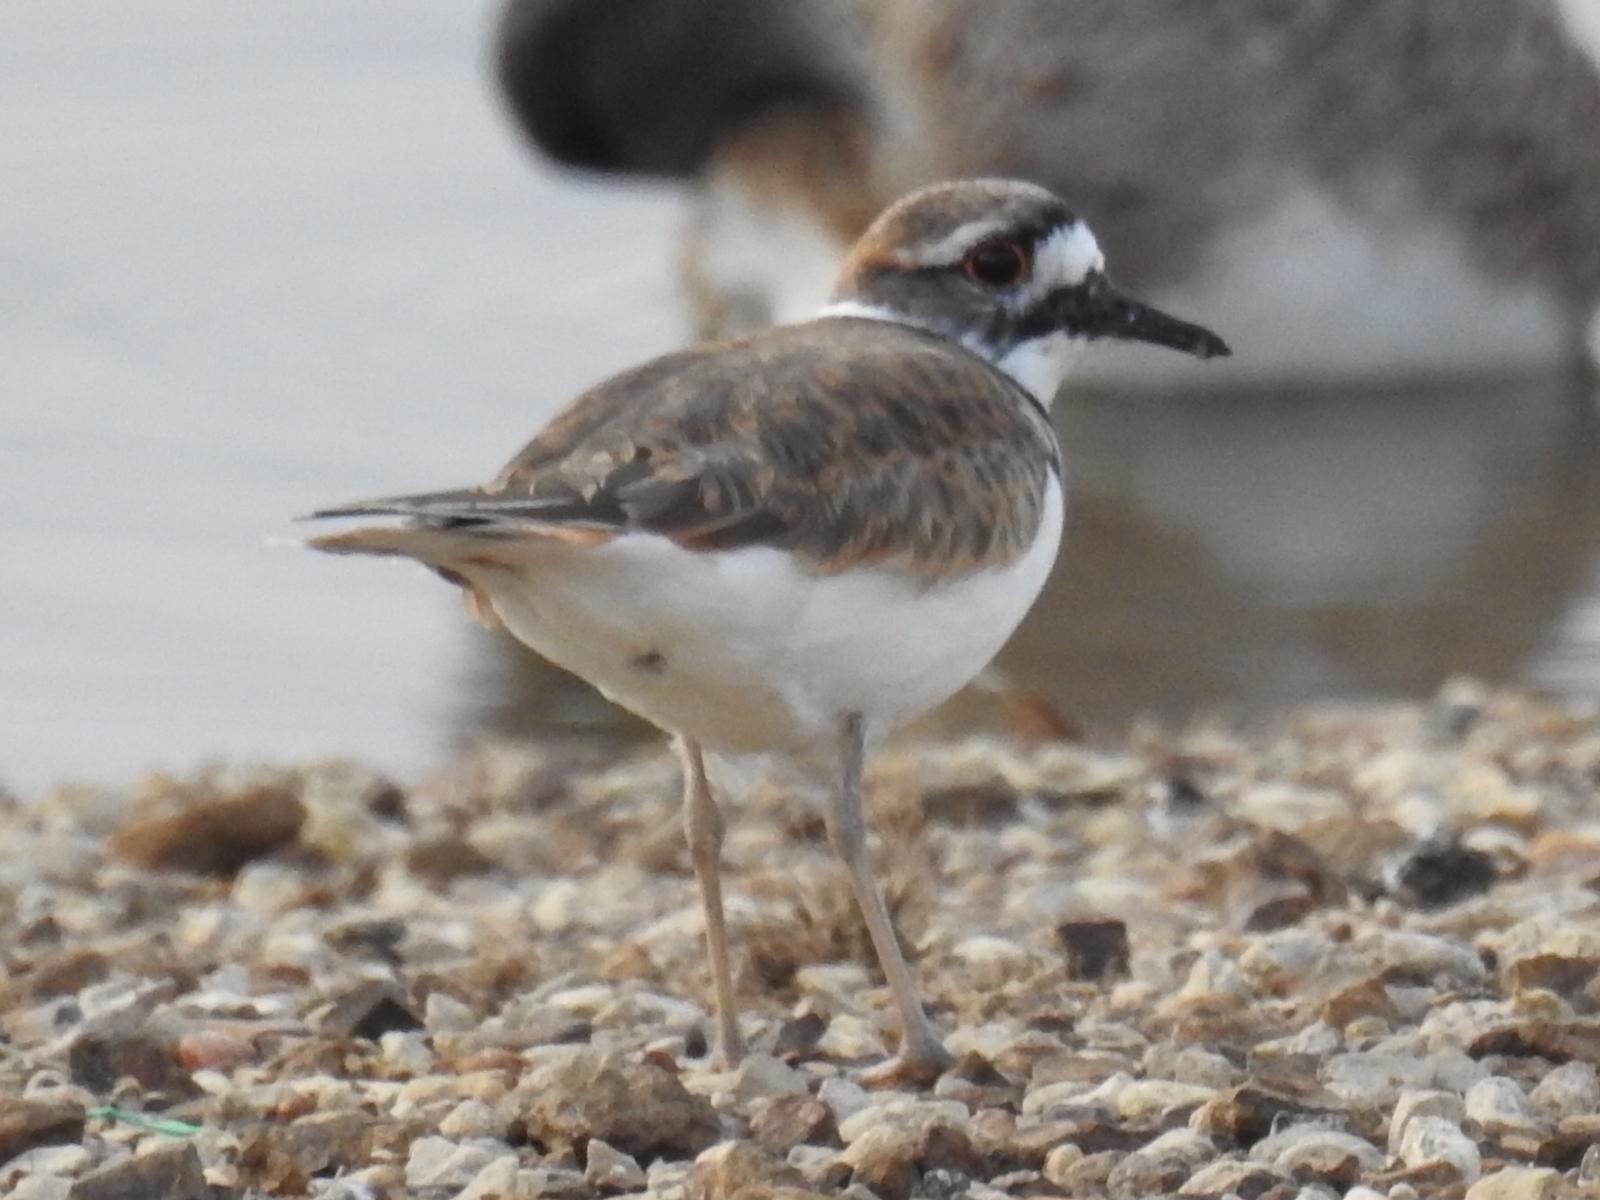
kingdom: Animalia
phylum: Chordata
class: Aves
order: Charadriiformes
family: Charadriidae
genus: Charadrius
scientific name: Charadrius vociferus
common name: Killdeer
